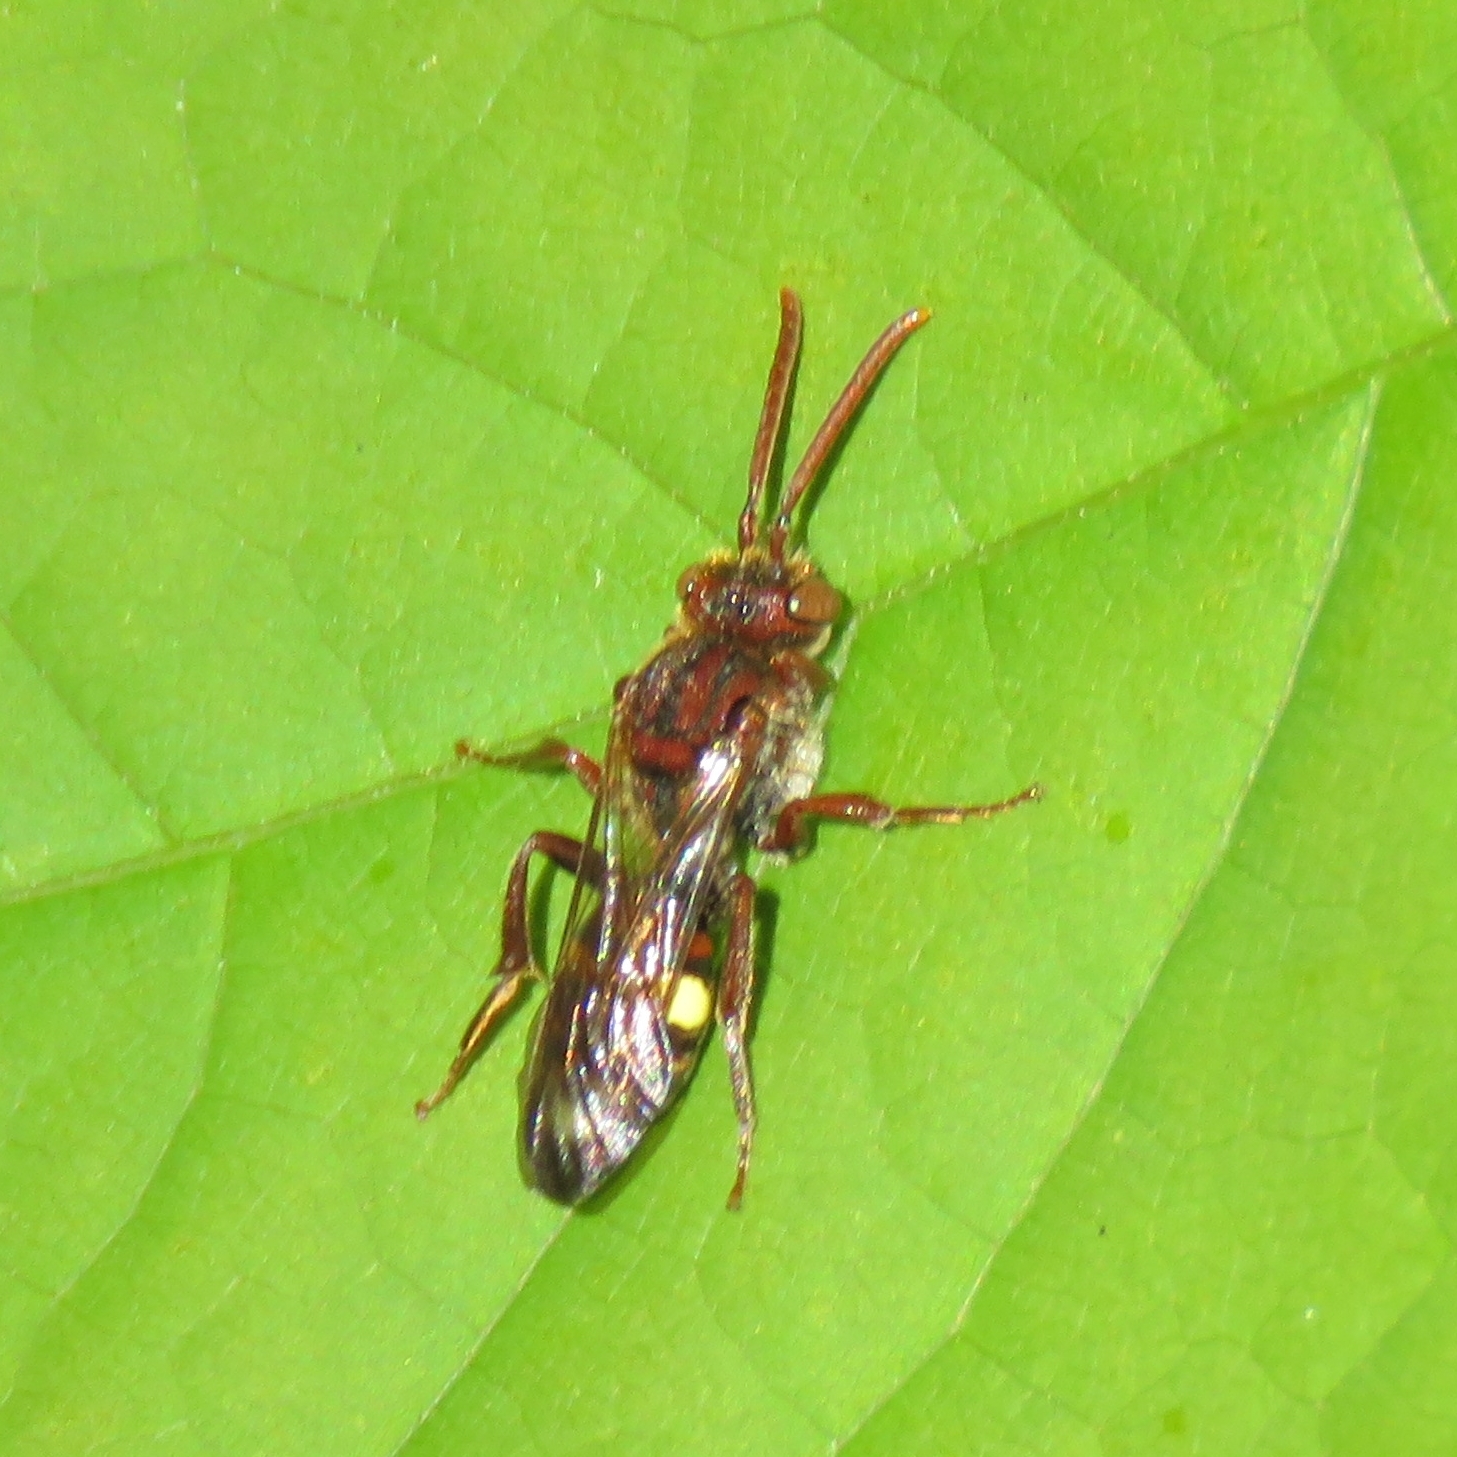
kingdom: Animalia
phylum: Arthropoda
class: Insecta
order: Hymenoptera
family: Apidae
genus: Nomada
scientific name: Nomada
